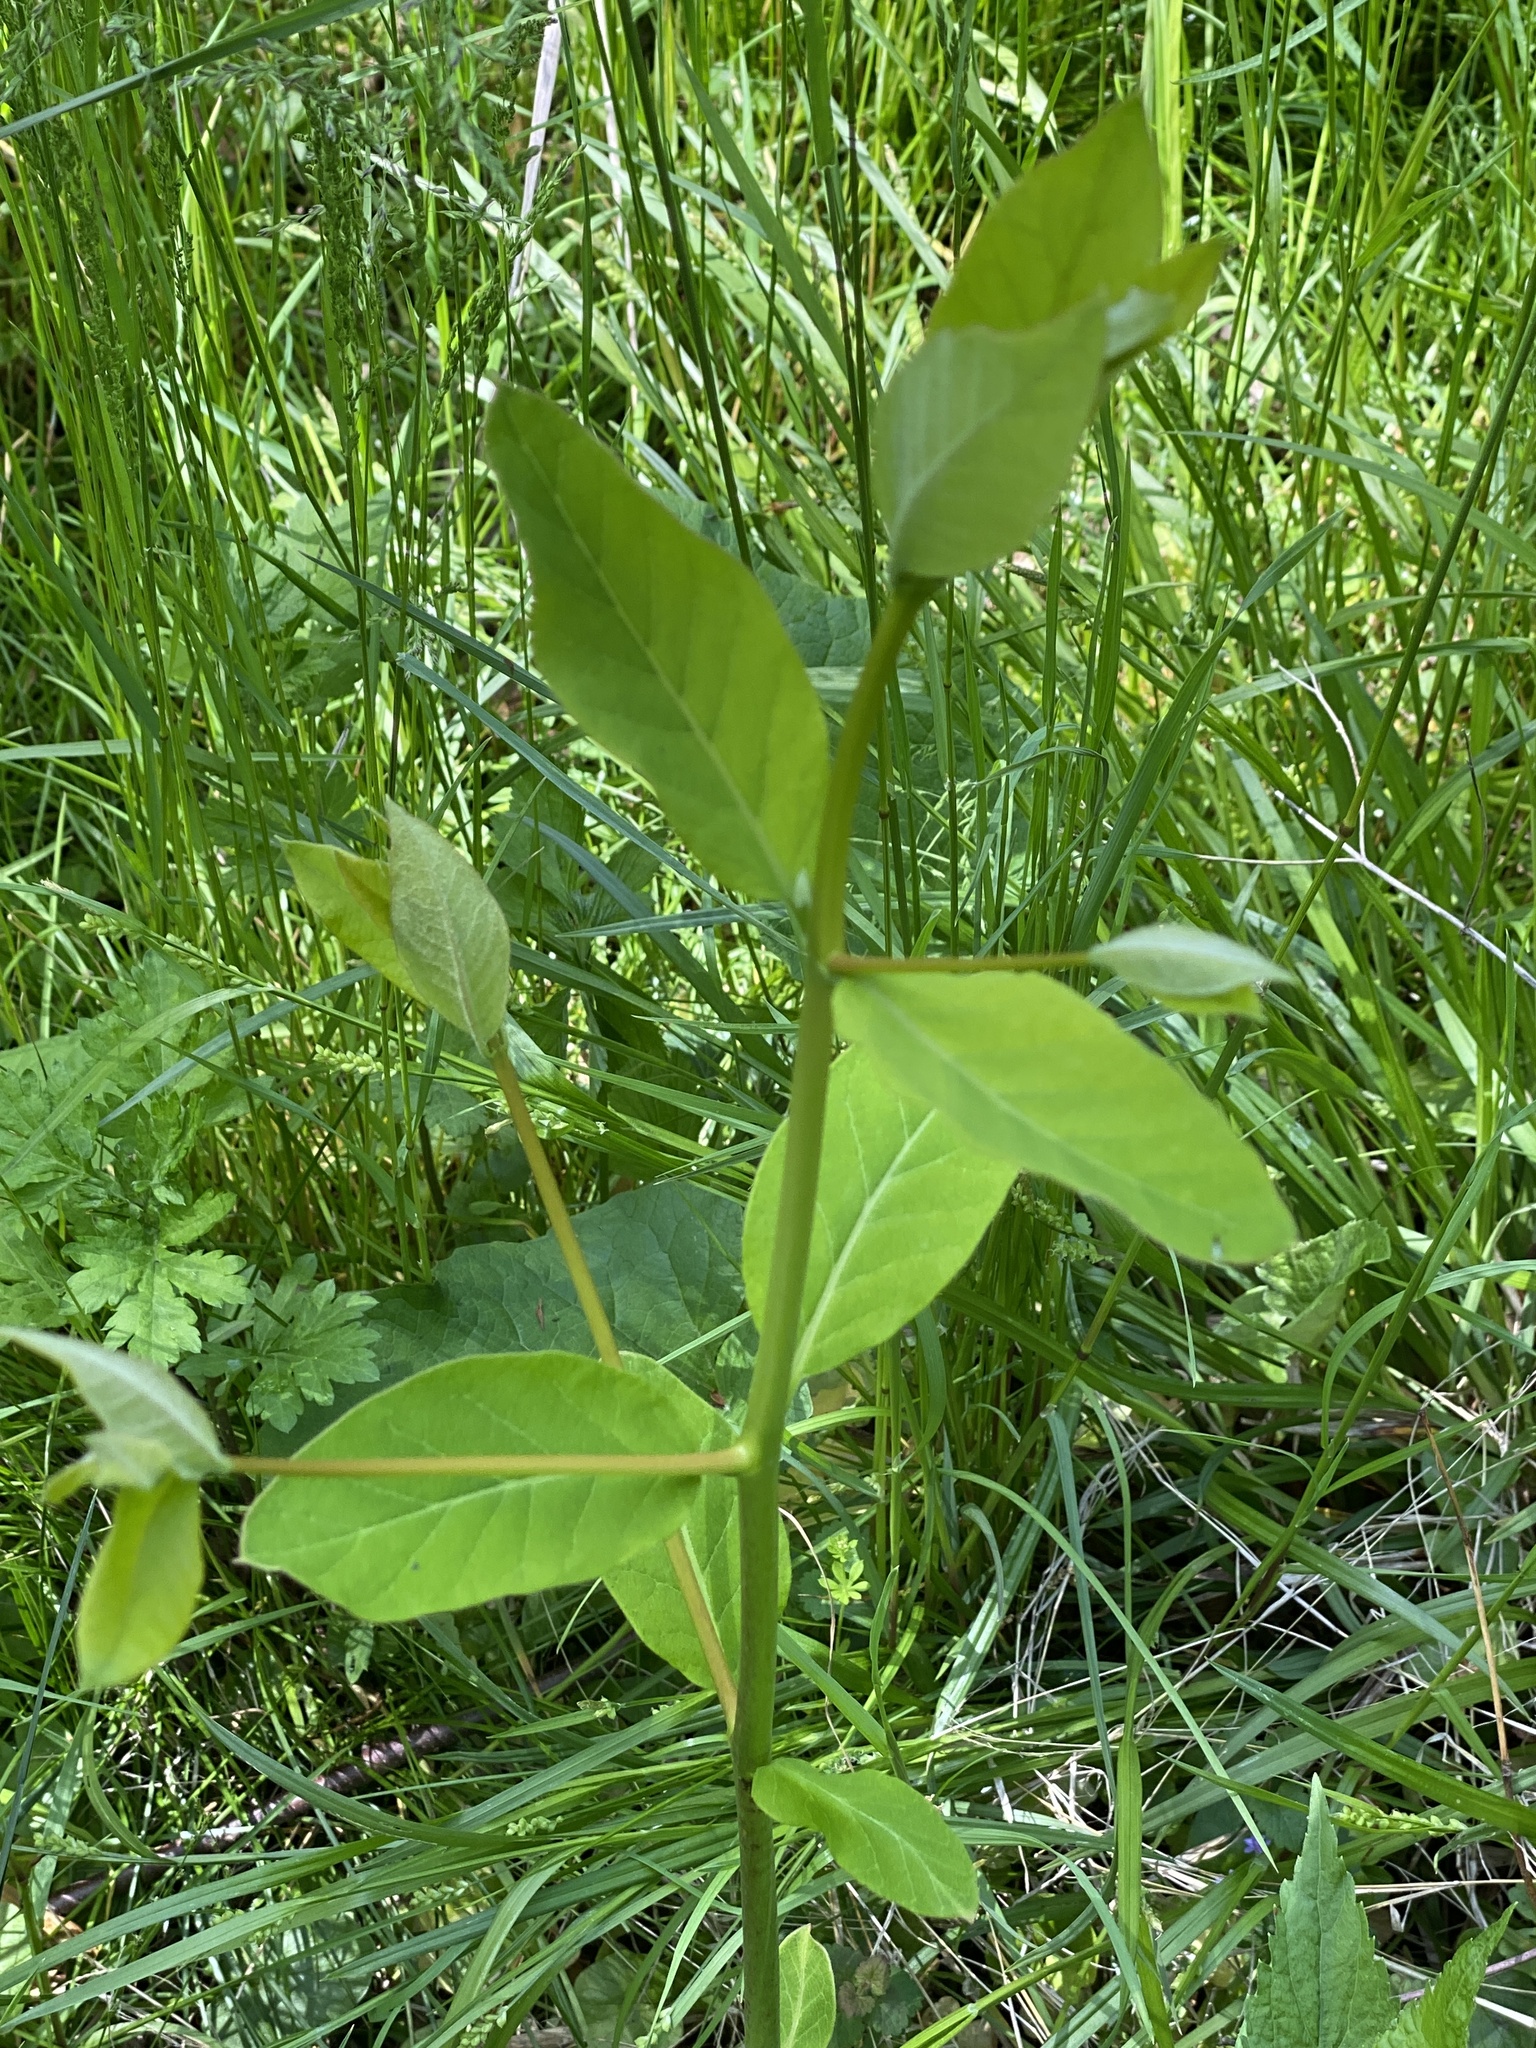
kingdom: Plantae
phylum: Tracheophyta
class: Magnoliopsida
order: Gentianales
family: Apocynaceae
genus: Apocynum
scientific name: Apocynum cannabinum
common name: Hemp dogbane
